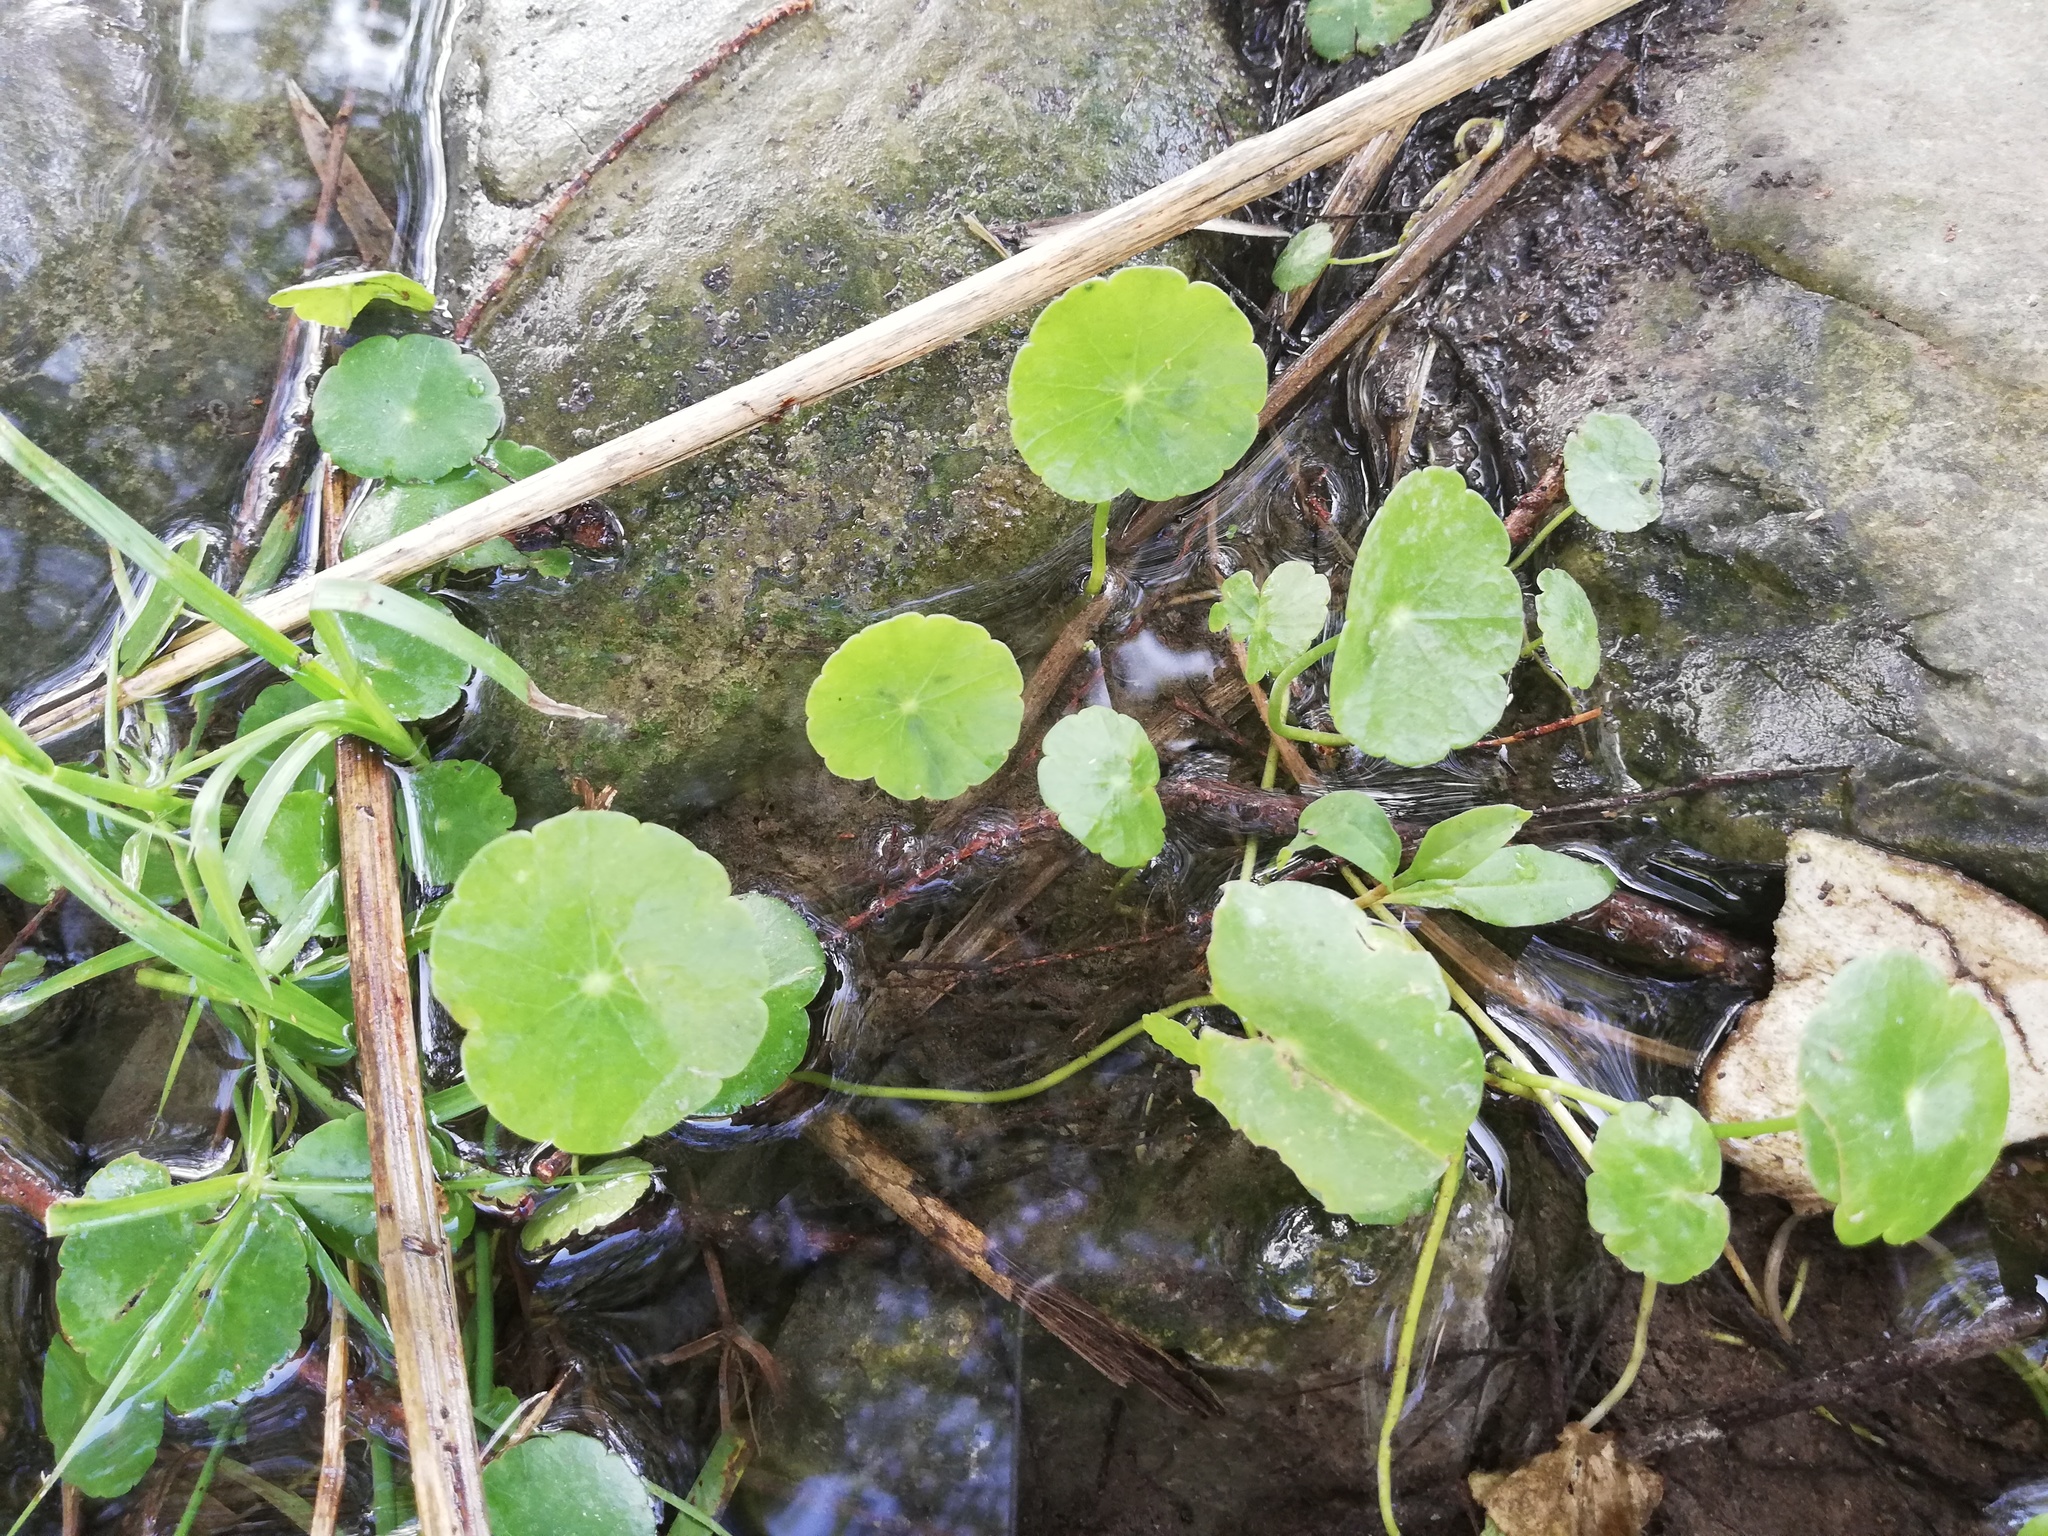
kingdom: Plantae
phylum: Tracheophyta
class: Magnoliopsida
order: Apiales
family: Araliaceae
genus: Hydrocotyle
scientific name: Hydrocotyle verticillata
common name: Whorled marshpennywort
